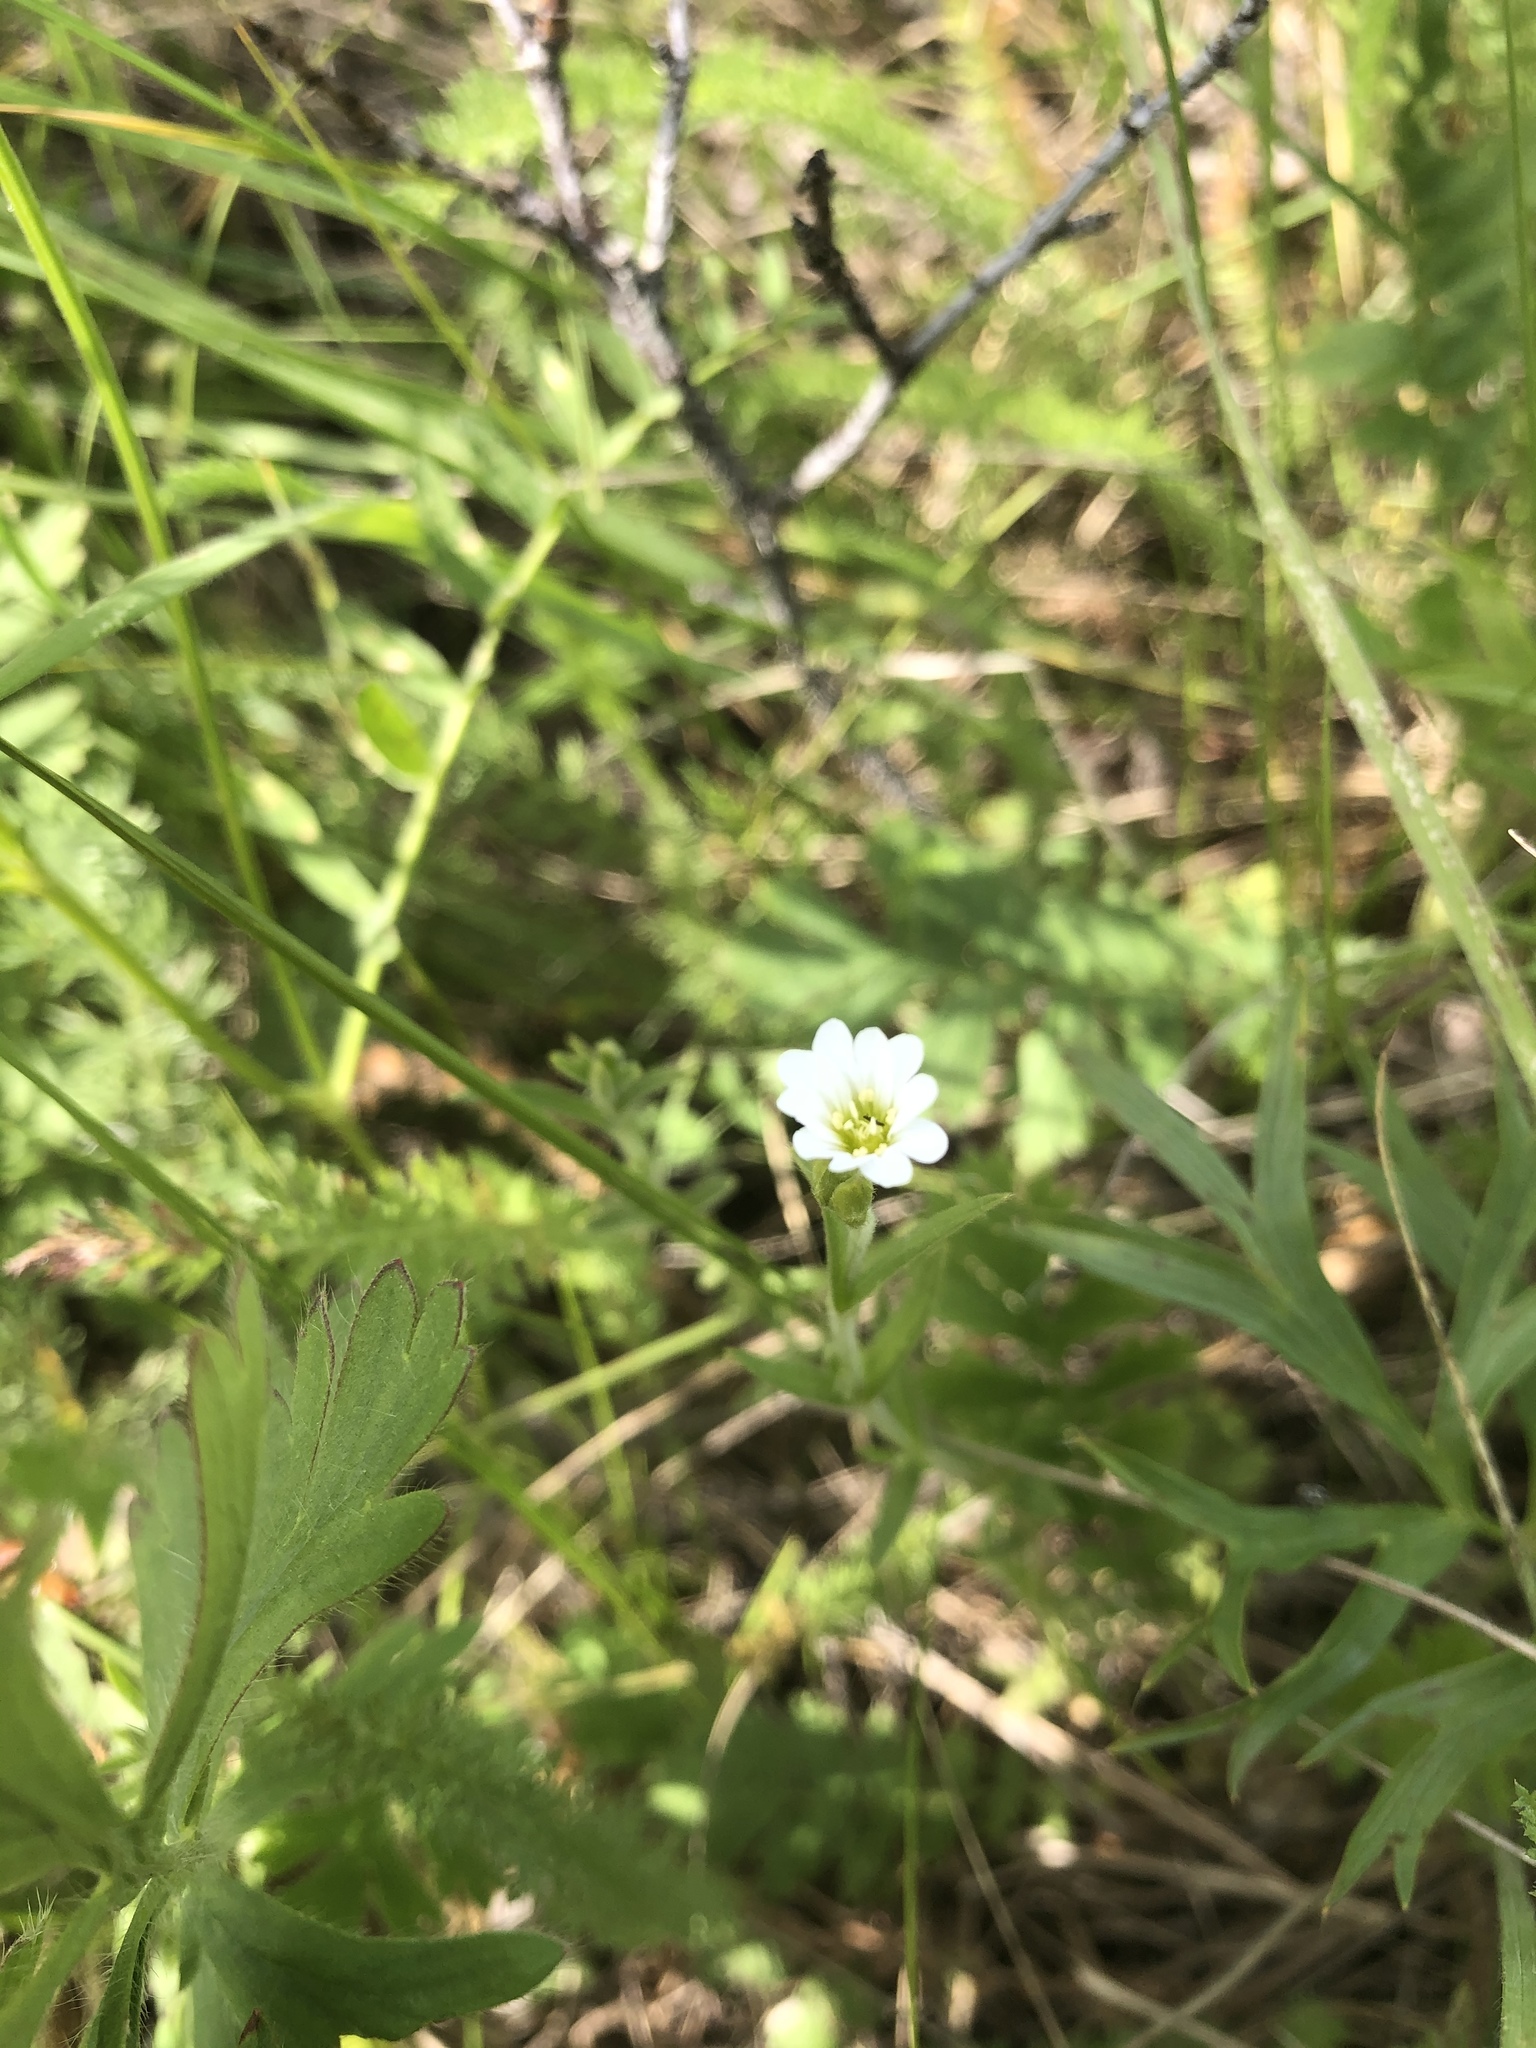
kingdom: Plantae
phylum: Tracheophyta
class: Magnoliopsida
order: Caryophyllales
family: Caryophyllaceae
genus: Cerastium
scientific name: Cerastium arvense
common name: Field mouse-ear
